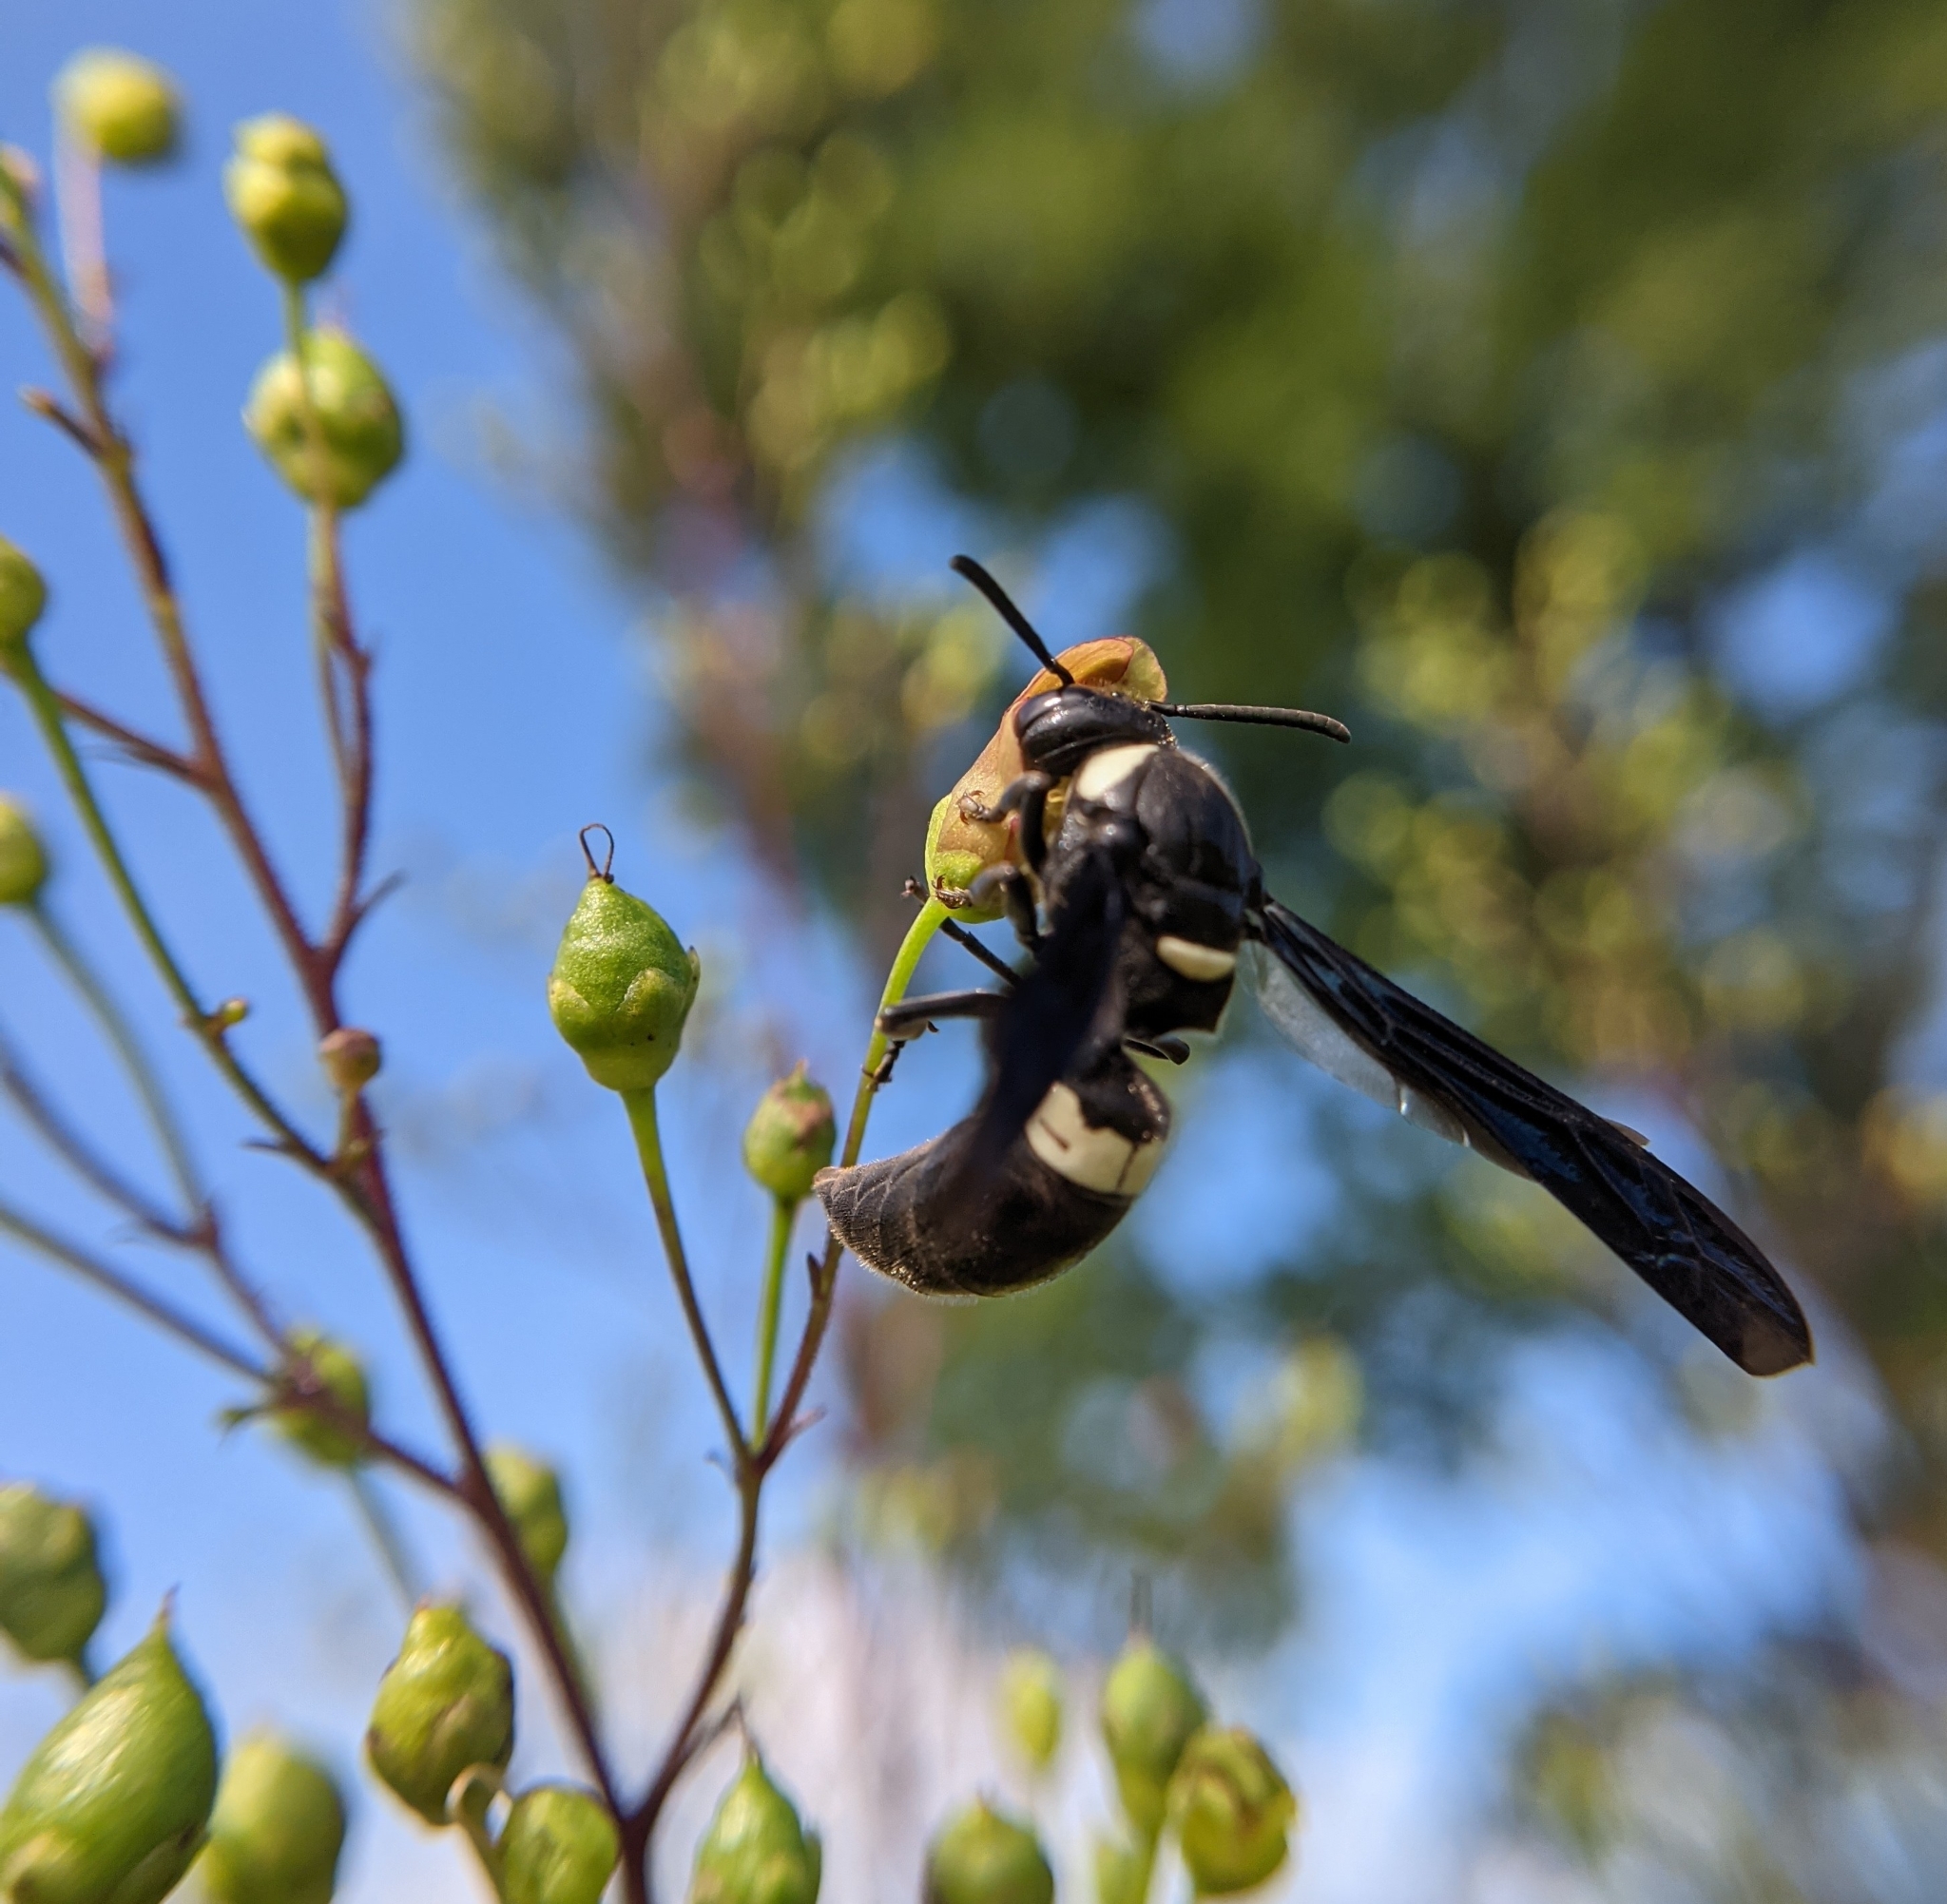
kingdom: Animalia
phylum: Arthropoda
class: Insecta
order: Hymenoptera
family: Eumenidae
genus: Monobia
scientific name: Monobia quadridens
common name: Four-toothed mason wasp
